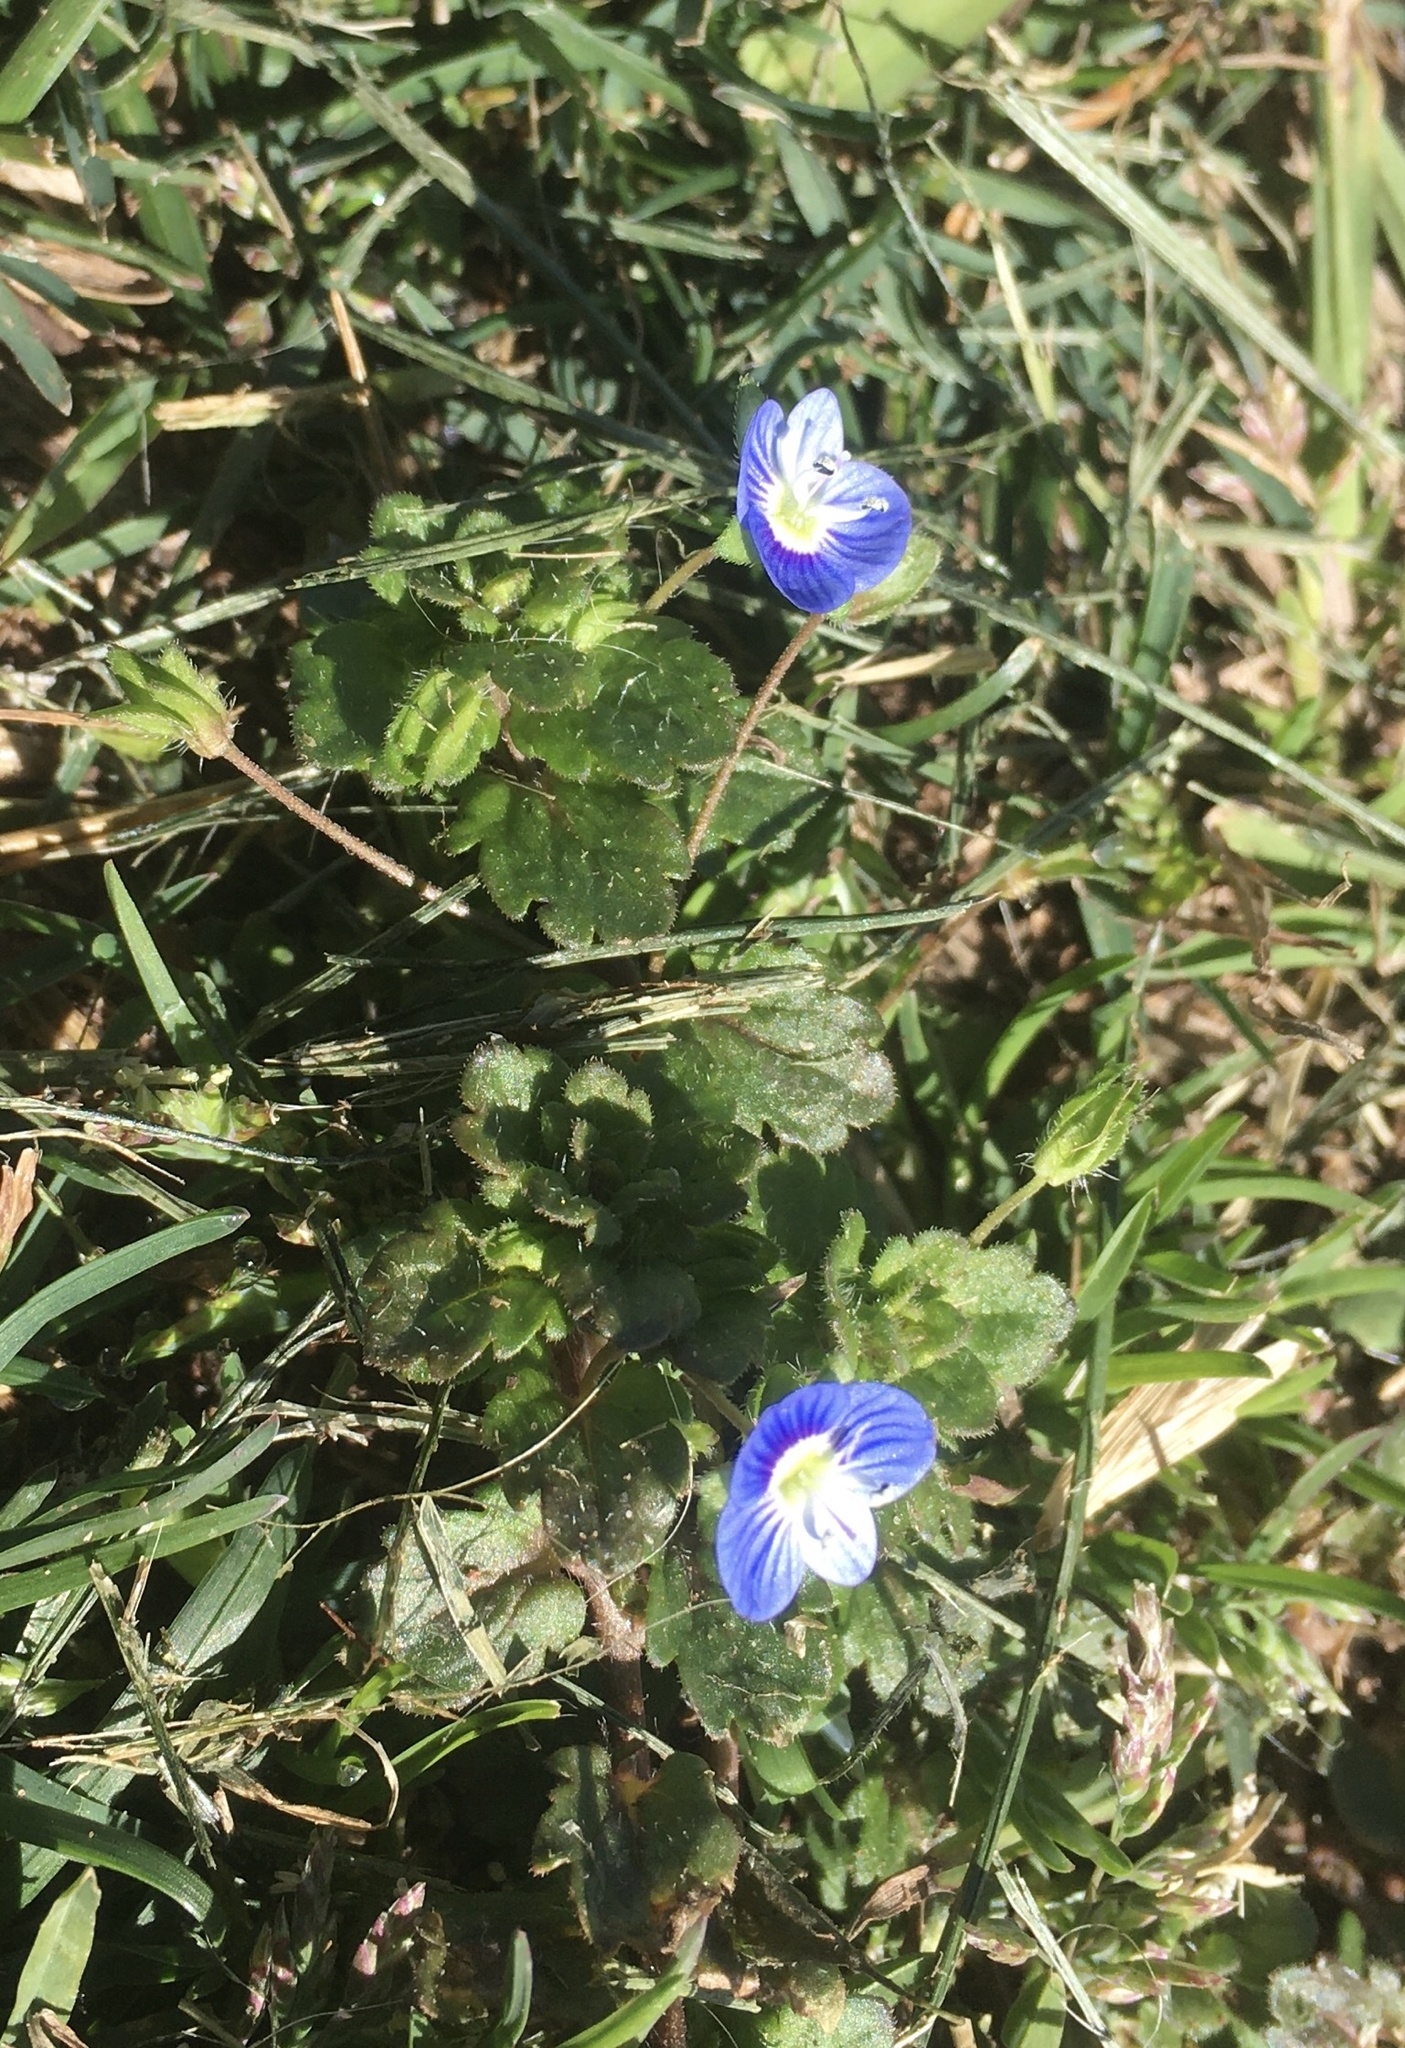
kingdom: Plantae
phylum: Tracheophyta
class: Magnoliopsida
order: Lamiales
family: Plantaginaceae
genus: Veronica
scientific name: Veronica persica
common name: Common field-speedwell
